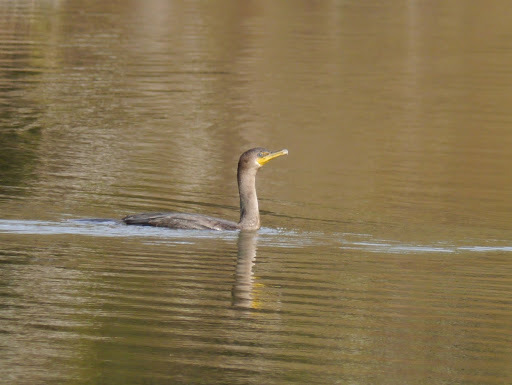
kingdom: Animalia
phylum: Chordata
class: Aves
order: Suliformes
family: Phalacrocoracidae
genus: Phalacrocorax
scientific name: Phalacrocorax auritus
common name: Double-crested cormorant
